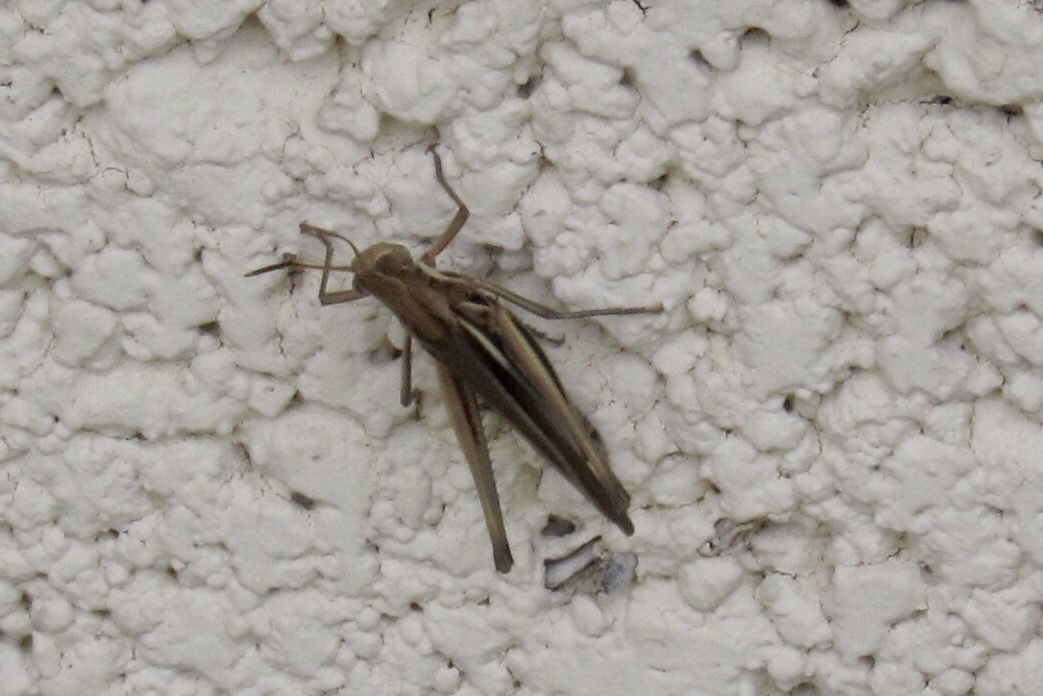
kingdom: Animalia
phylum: Arthropoda
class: Insecta
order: Orthoptera
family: Acrididae
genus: Syrbula
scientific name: Syrbula montezuma
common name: Montezuma's grasshopper
